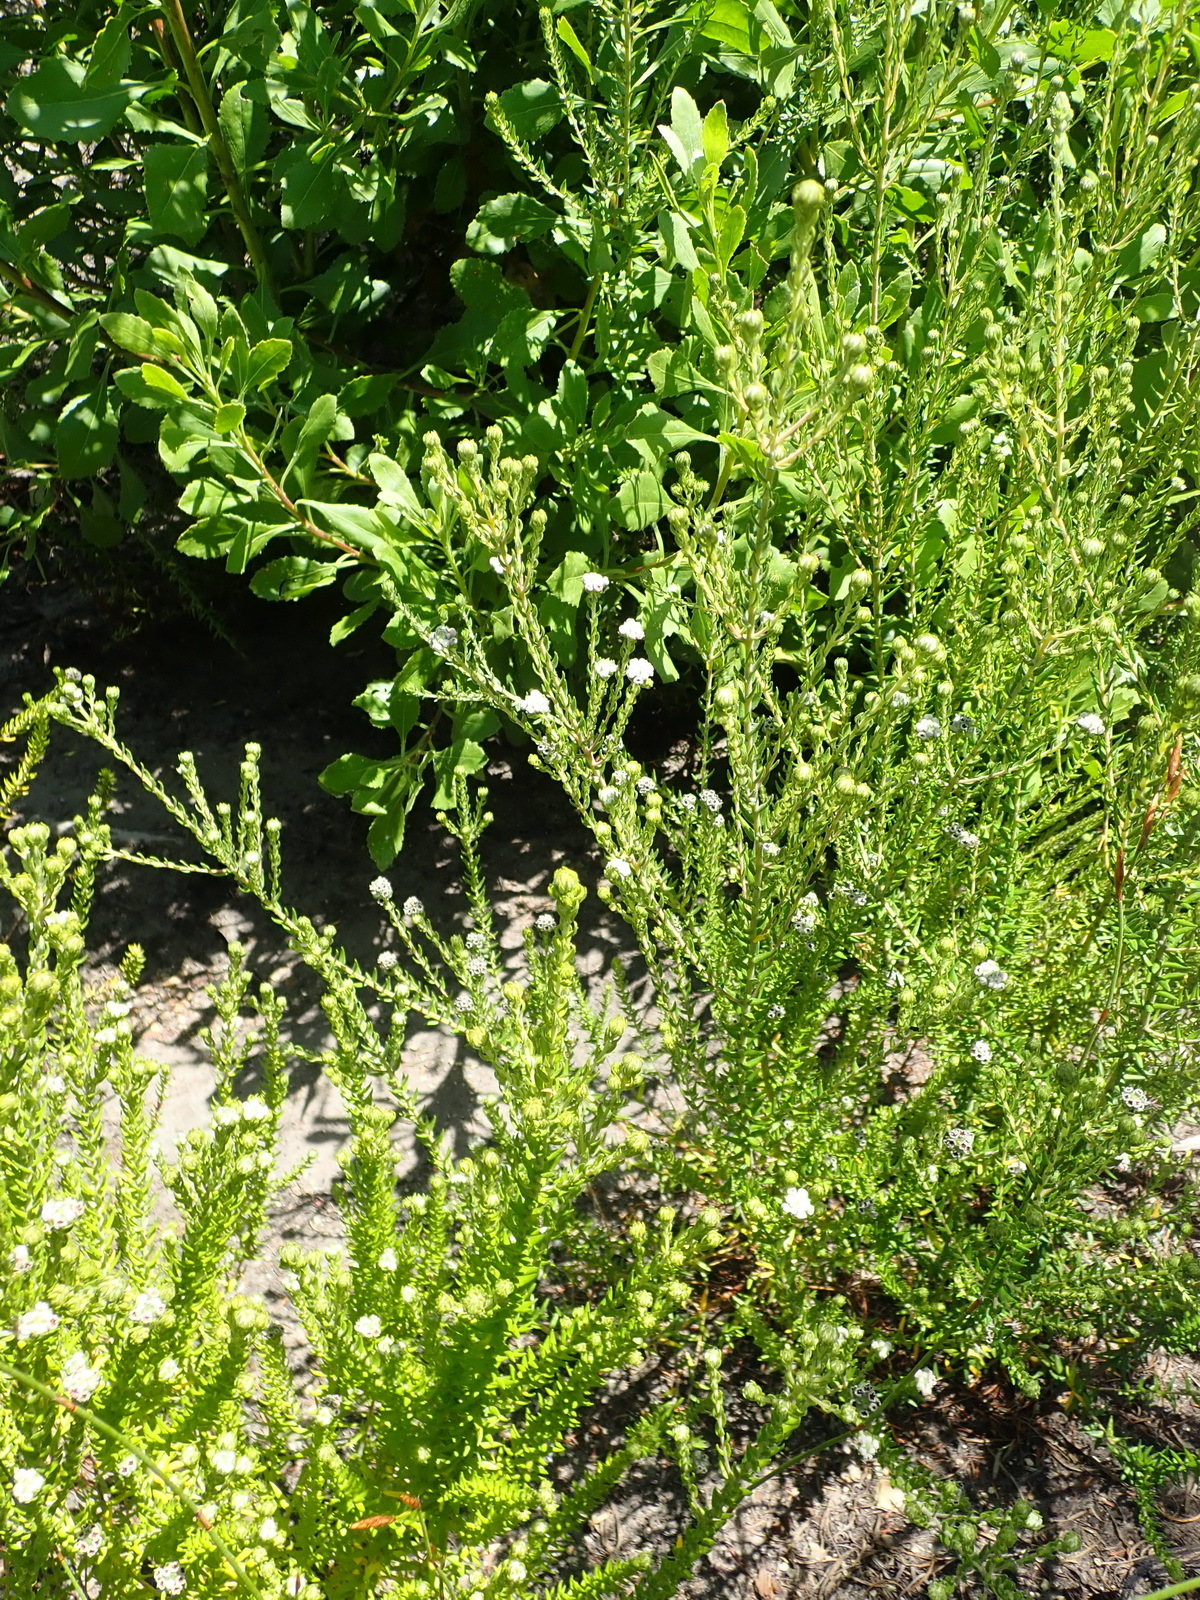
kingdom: Plantae
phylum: Tracheophyta
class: Magnoliopsida
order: Rosales
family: Rhamnaceae
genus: Phylica
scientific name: Phylica purpurea
